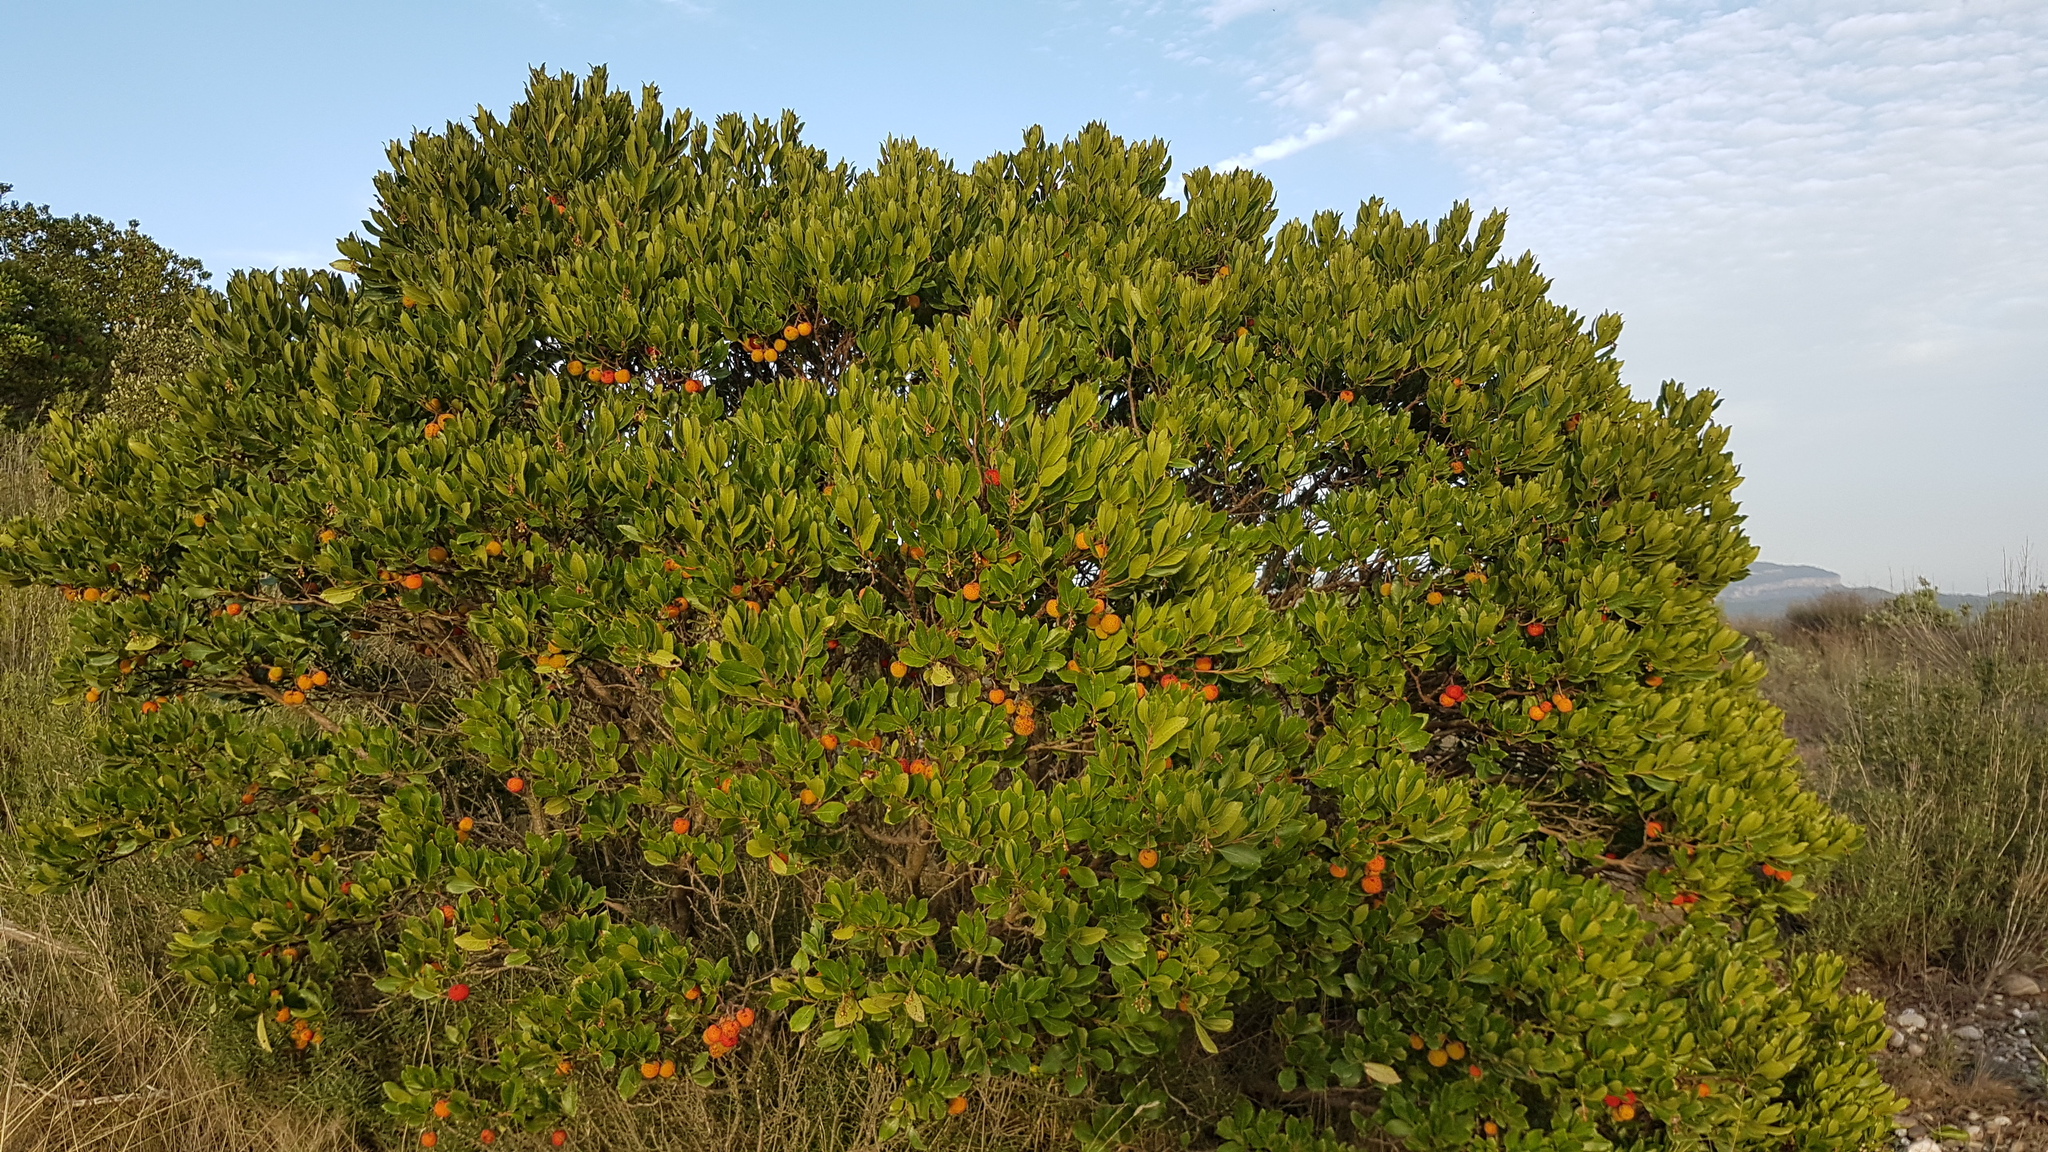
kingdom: Plantae
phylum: Tracheophyta
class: Magnoliopsida
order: Ericales
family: Ericaceae
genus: Arbutus
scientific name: Arbutus unedo
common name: Strawberry-tree
